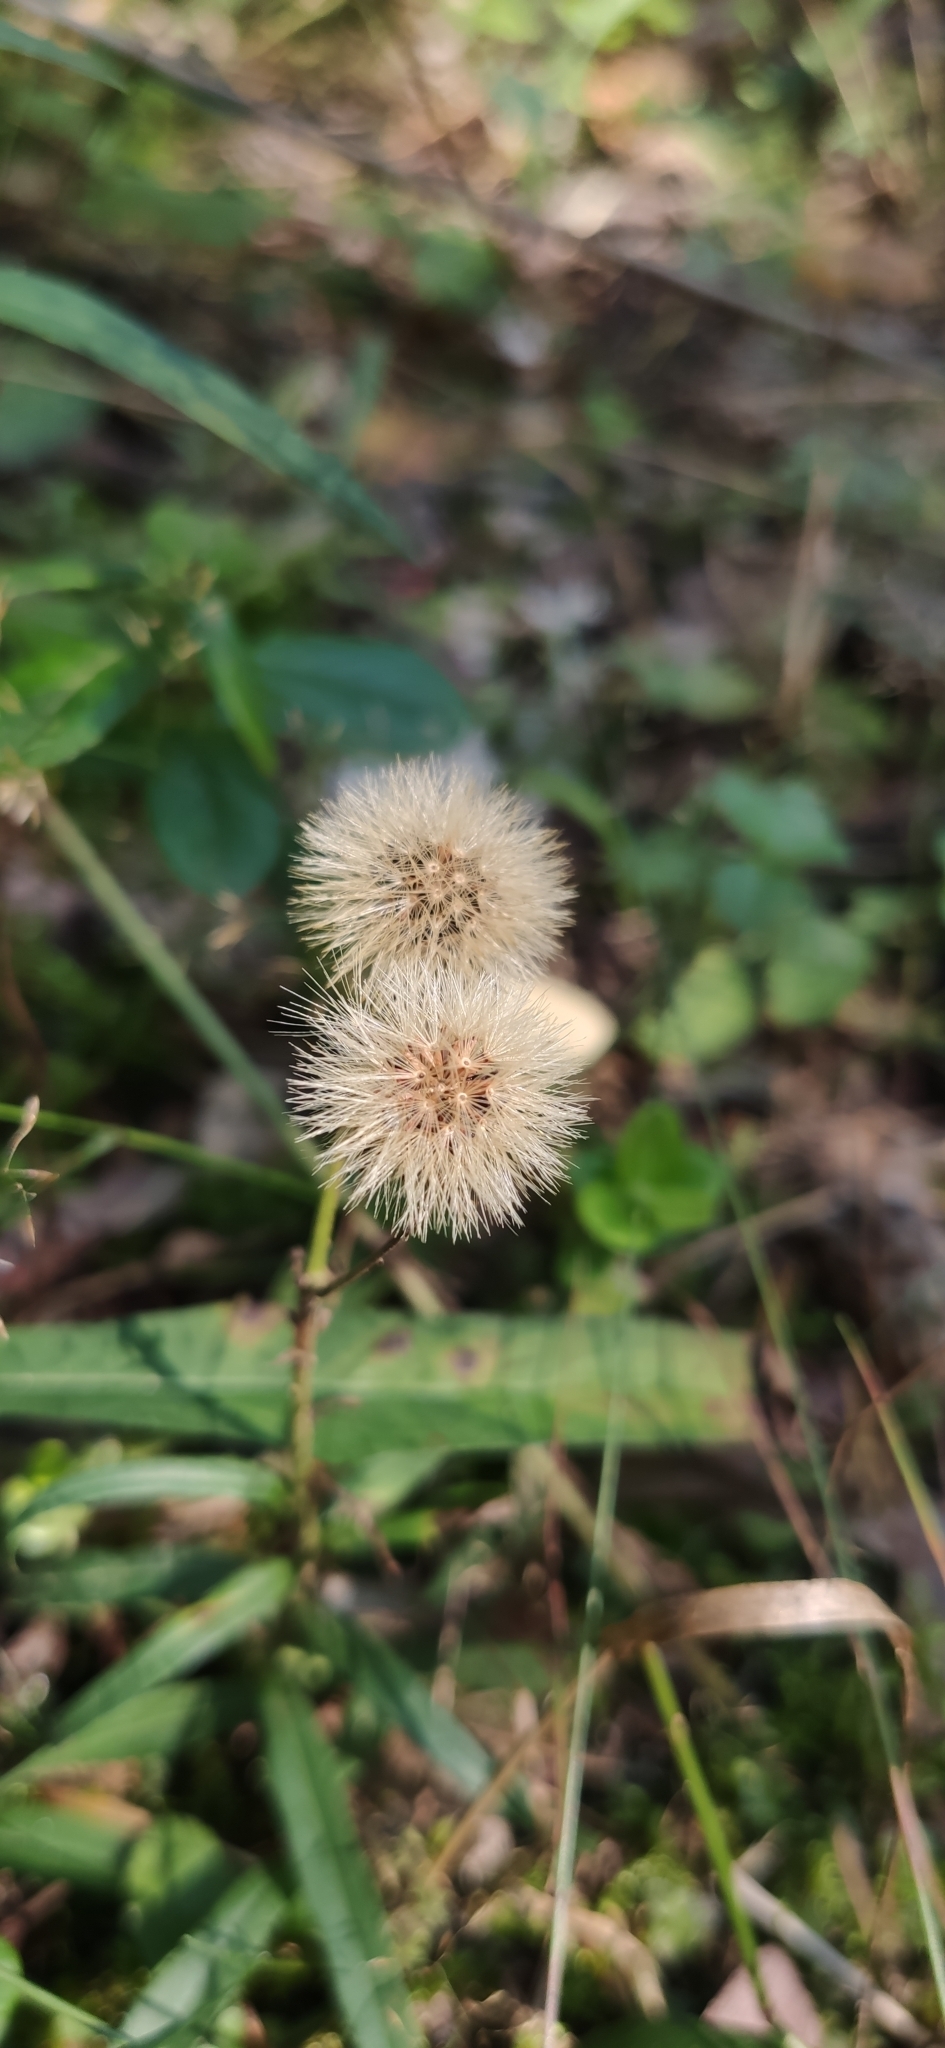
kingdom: Plantae
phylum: Tracheophyta
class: Magnoliopsida
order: Asterales
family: Asteraceae
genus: Hieracium
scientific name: Hieracium umbellatum
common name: Northern hawkweed
